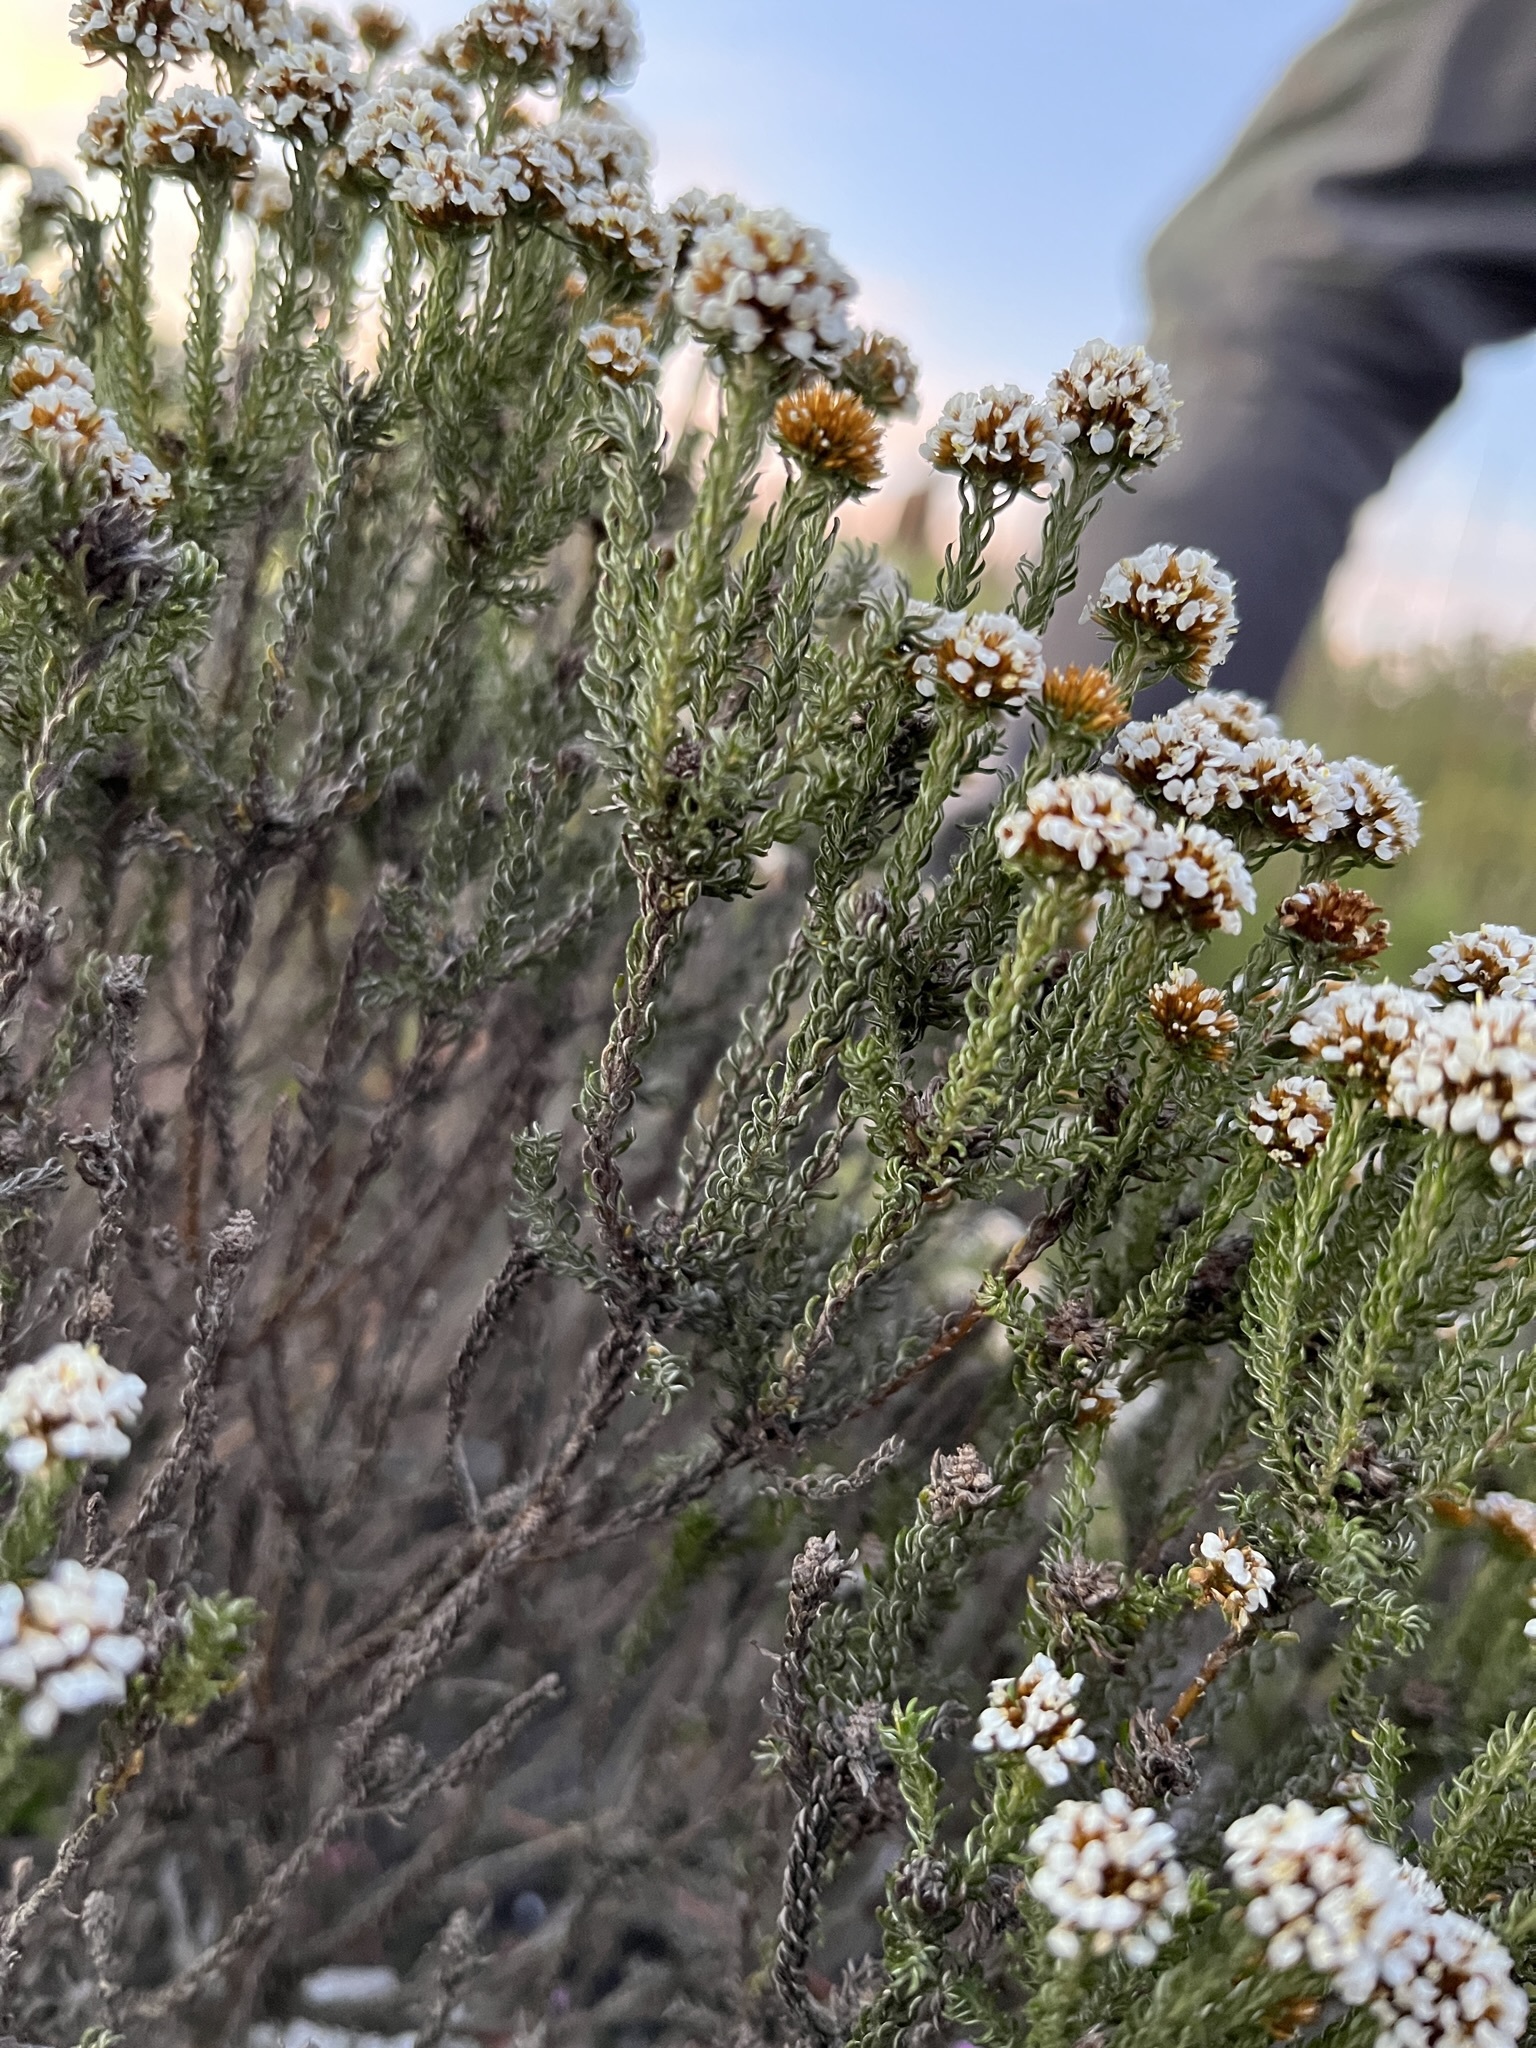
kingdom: Plantae
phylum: Tracheophyta
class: Magnoliopsida
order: Asterales
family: Asteraceae
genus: Disparago
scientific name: Disparago anomala
